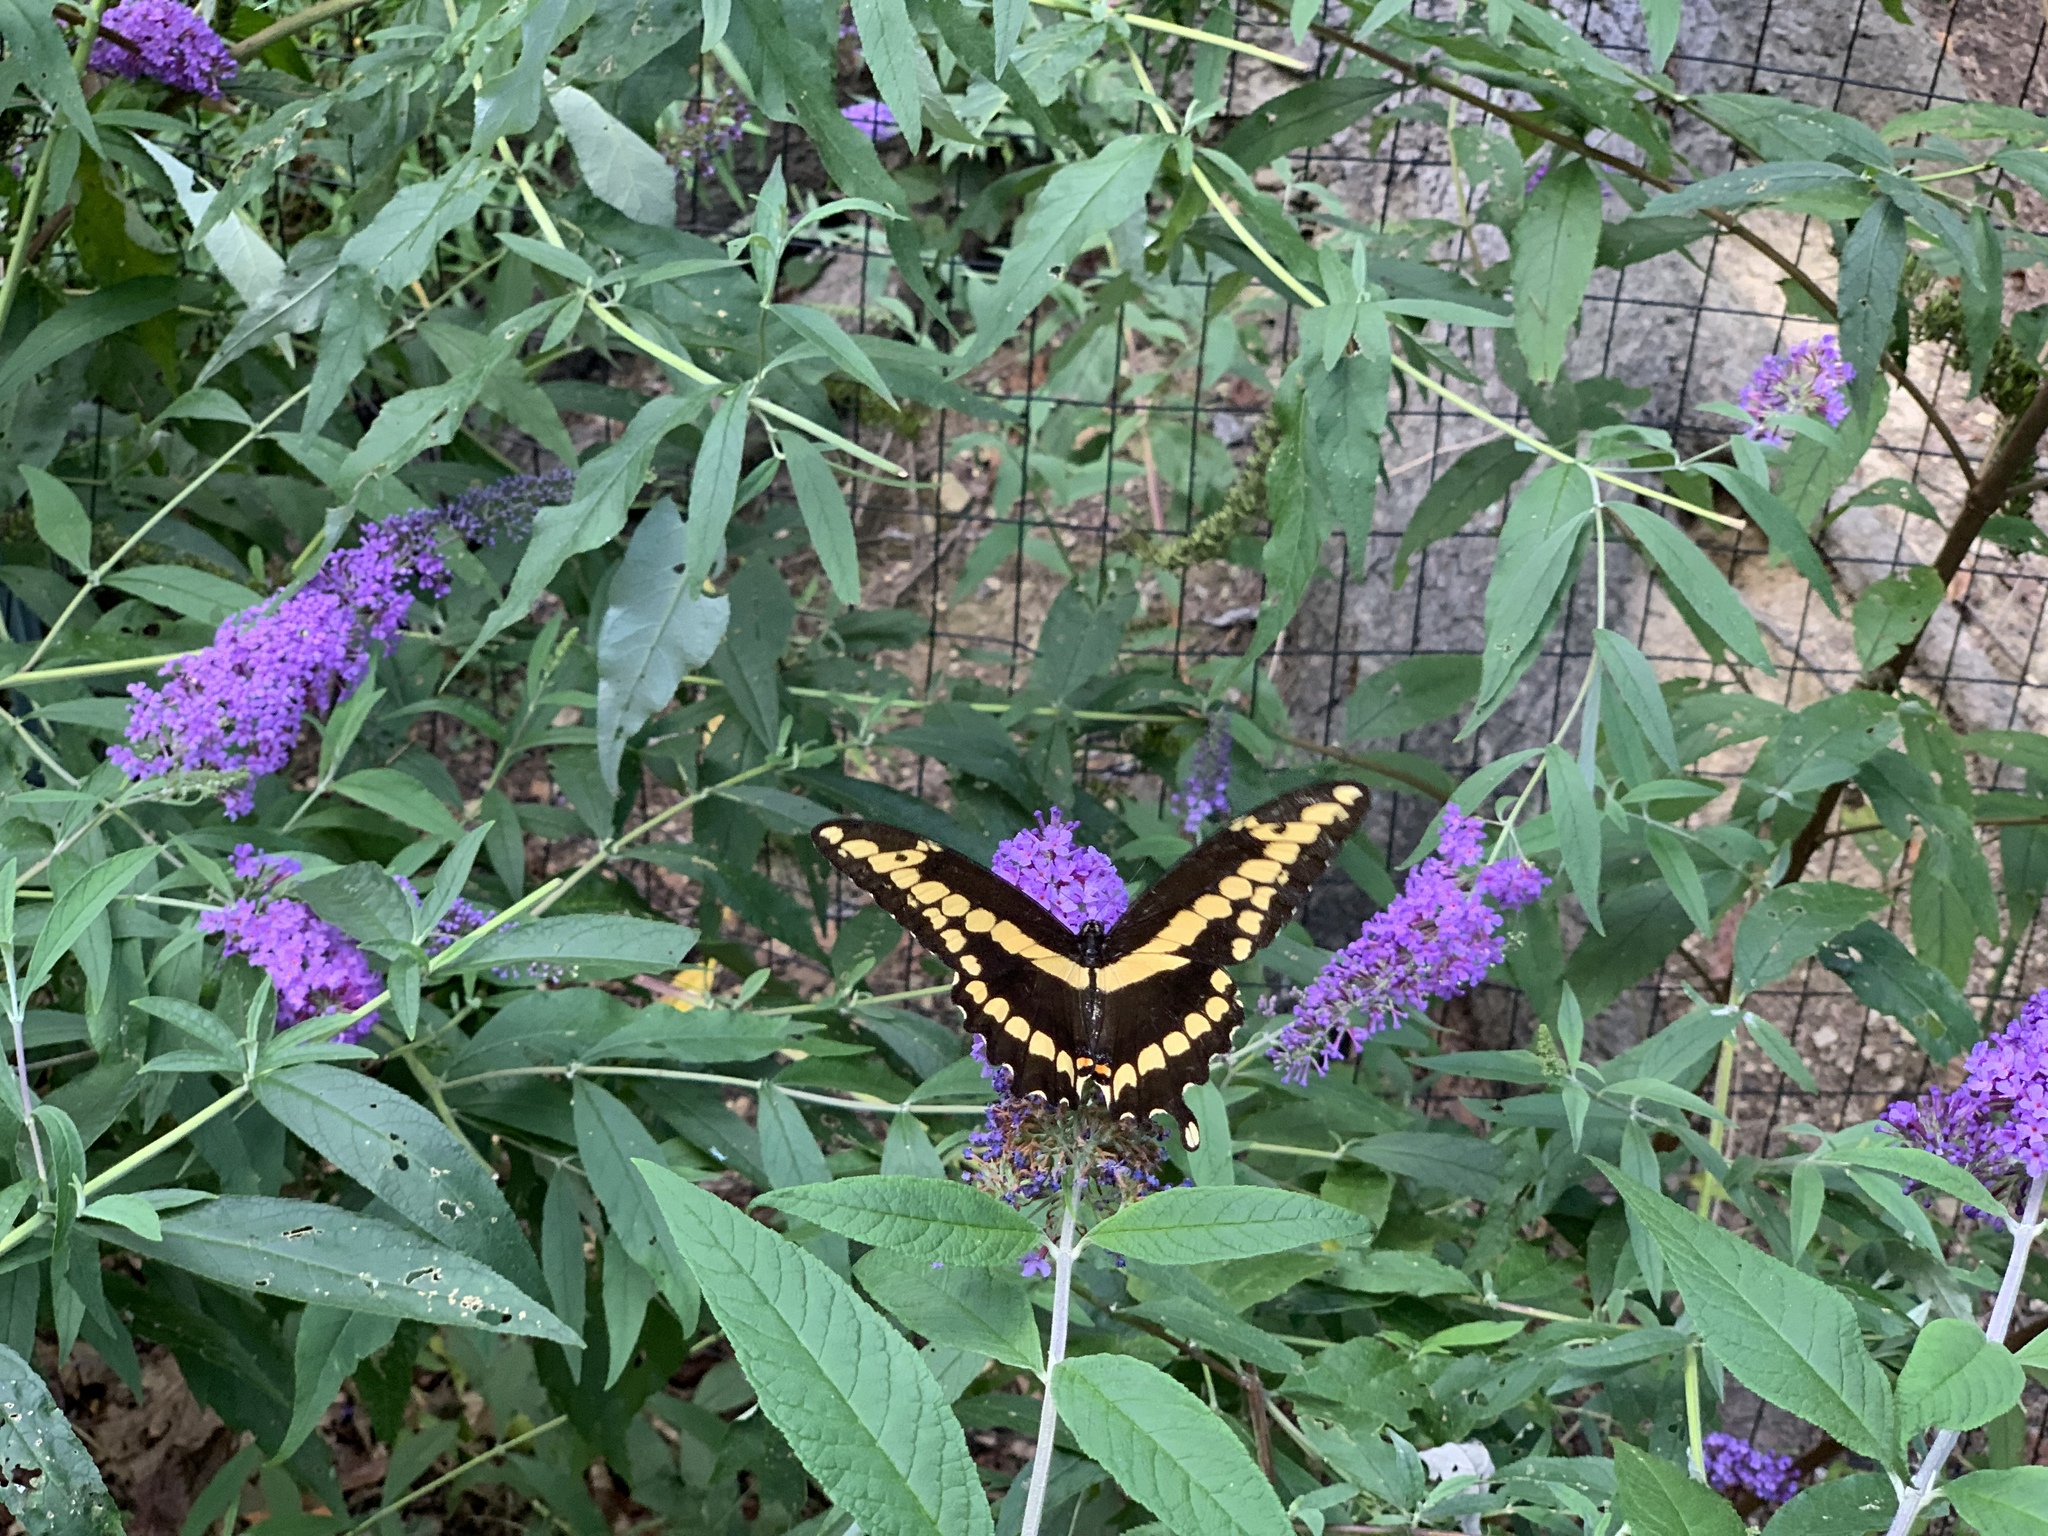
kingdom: Animalia
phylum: Arthropoda
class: Insecta
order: Lepidoptera
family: Papilionidae
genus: Papilio
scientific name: Papilio cresphontes
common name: Giant swallowtail
